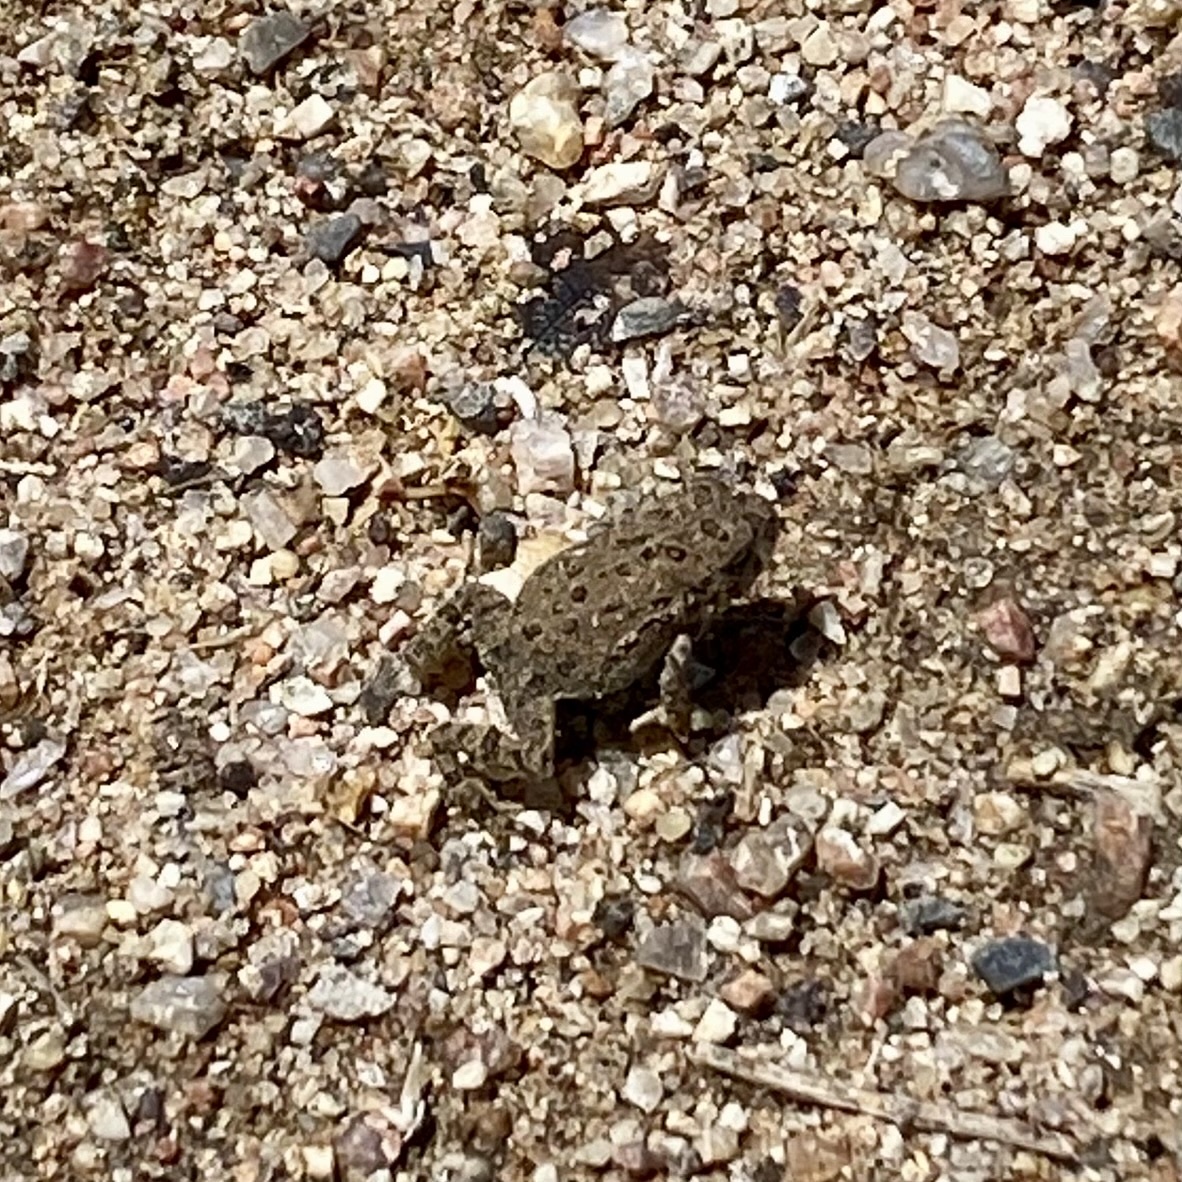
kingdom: Animalia
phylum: Chordata
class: Amphibia
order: Anura
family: Bufonidae
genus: Anaxyrus
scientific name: Anaxyrus
